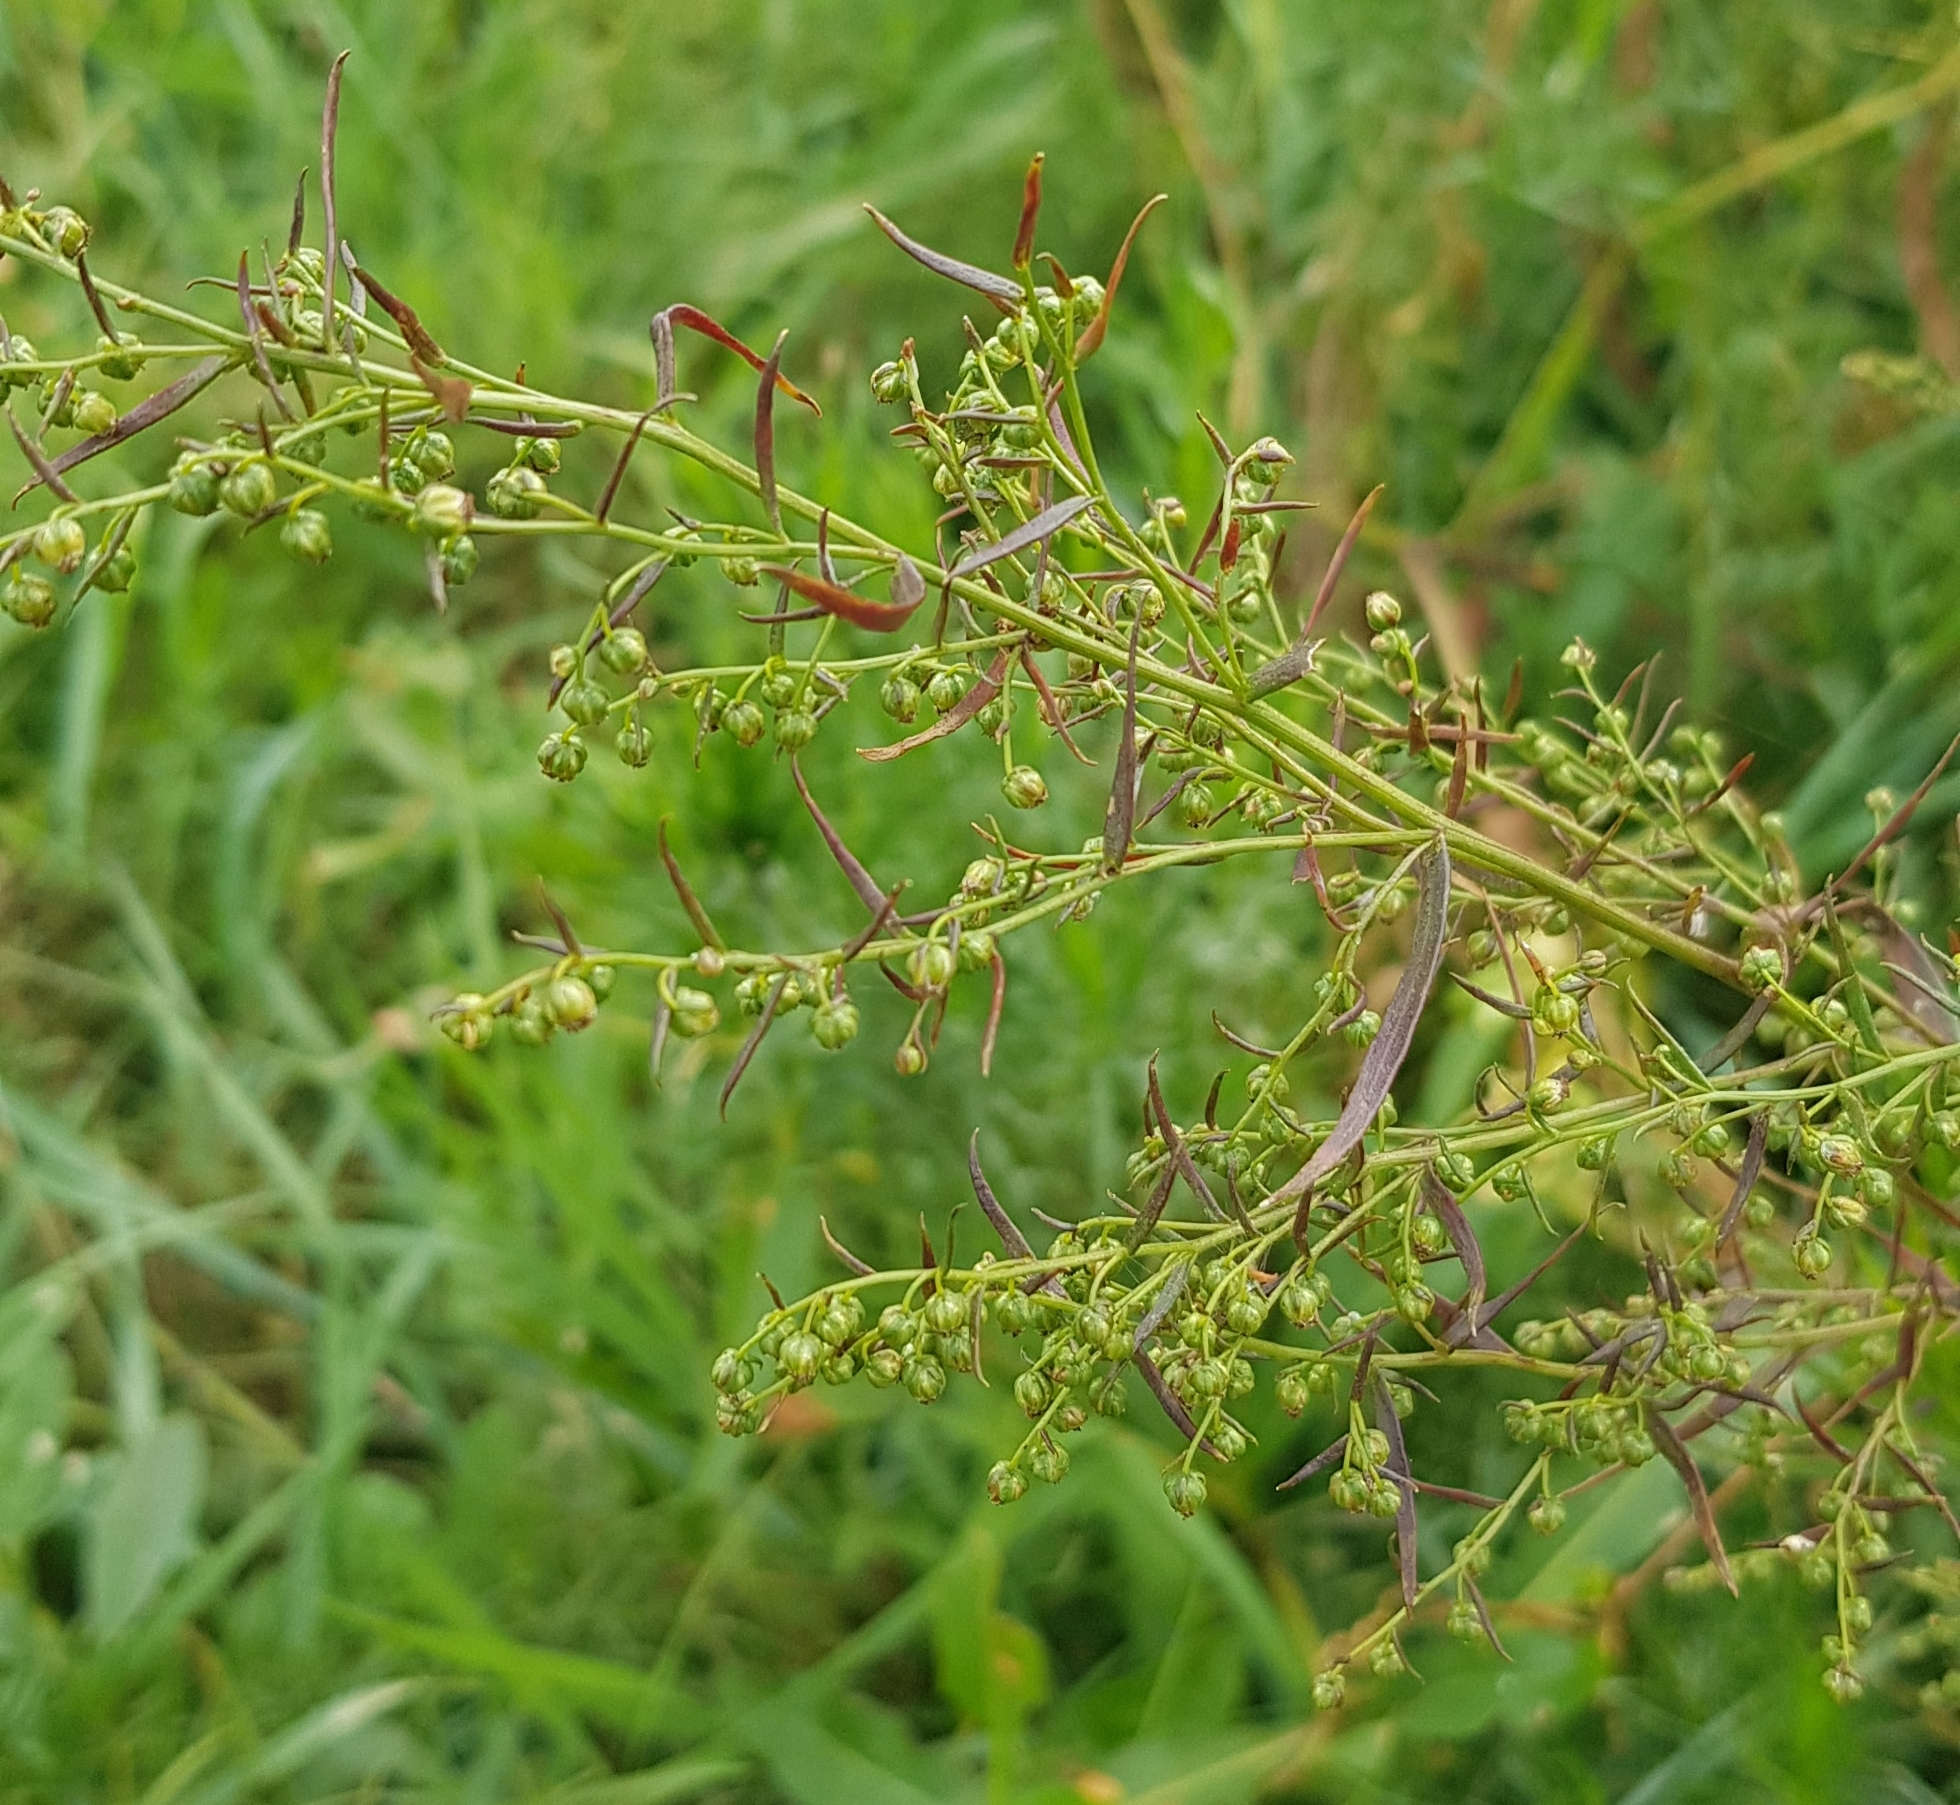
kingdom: Plantae
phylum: Tracheophyta
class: Magnoliopsida
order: Asterales
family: Asteraceae
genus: Artemisia
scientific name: Artemisia dracunculus
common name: Tarragon
